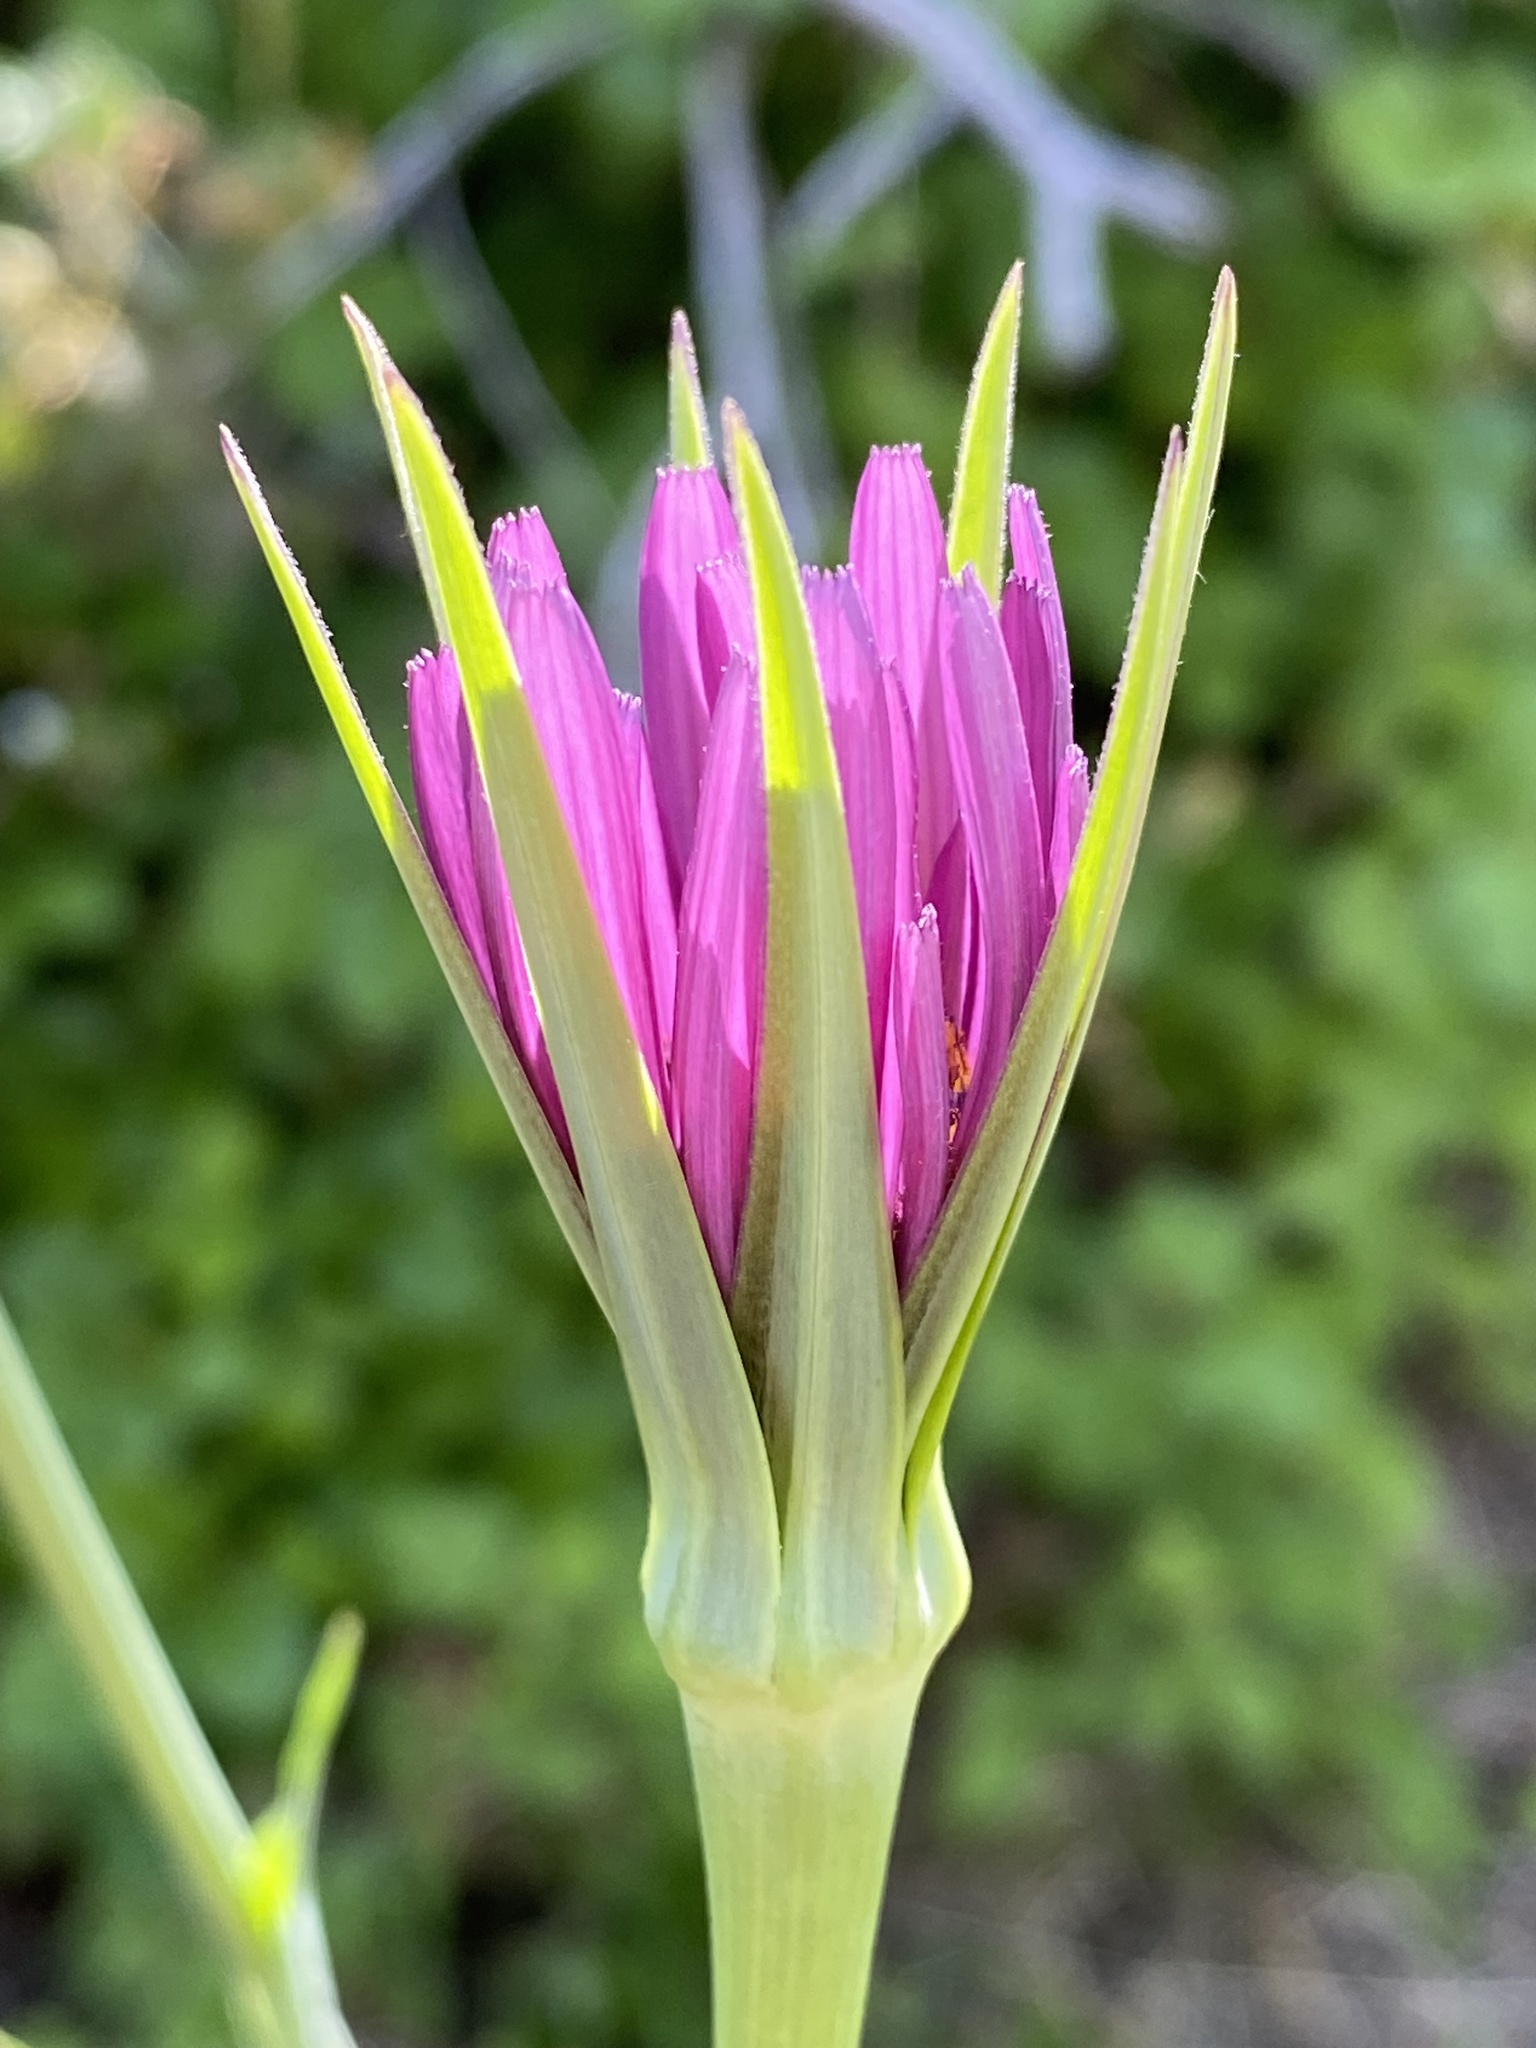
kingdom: Plantae
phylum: Tracheophyta
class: Magnoliopsida
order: Asterales
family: Asteraceae
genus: Tragopogon
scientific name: Tragopogon porrifolius
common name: Salsify
